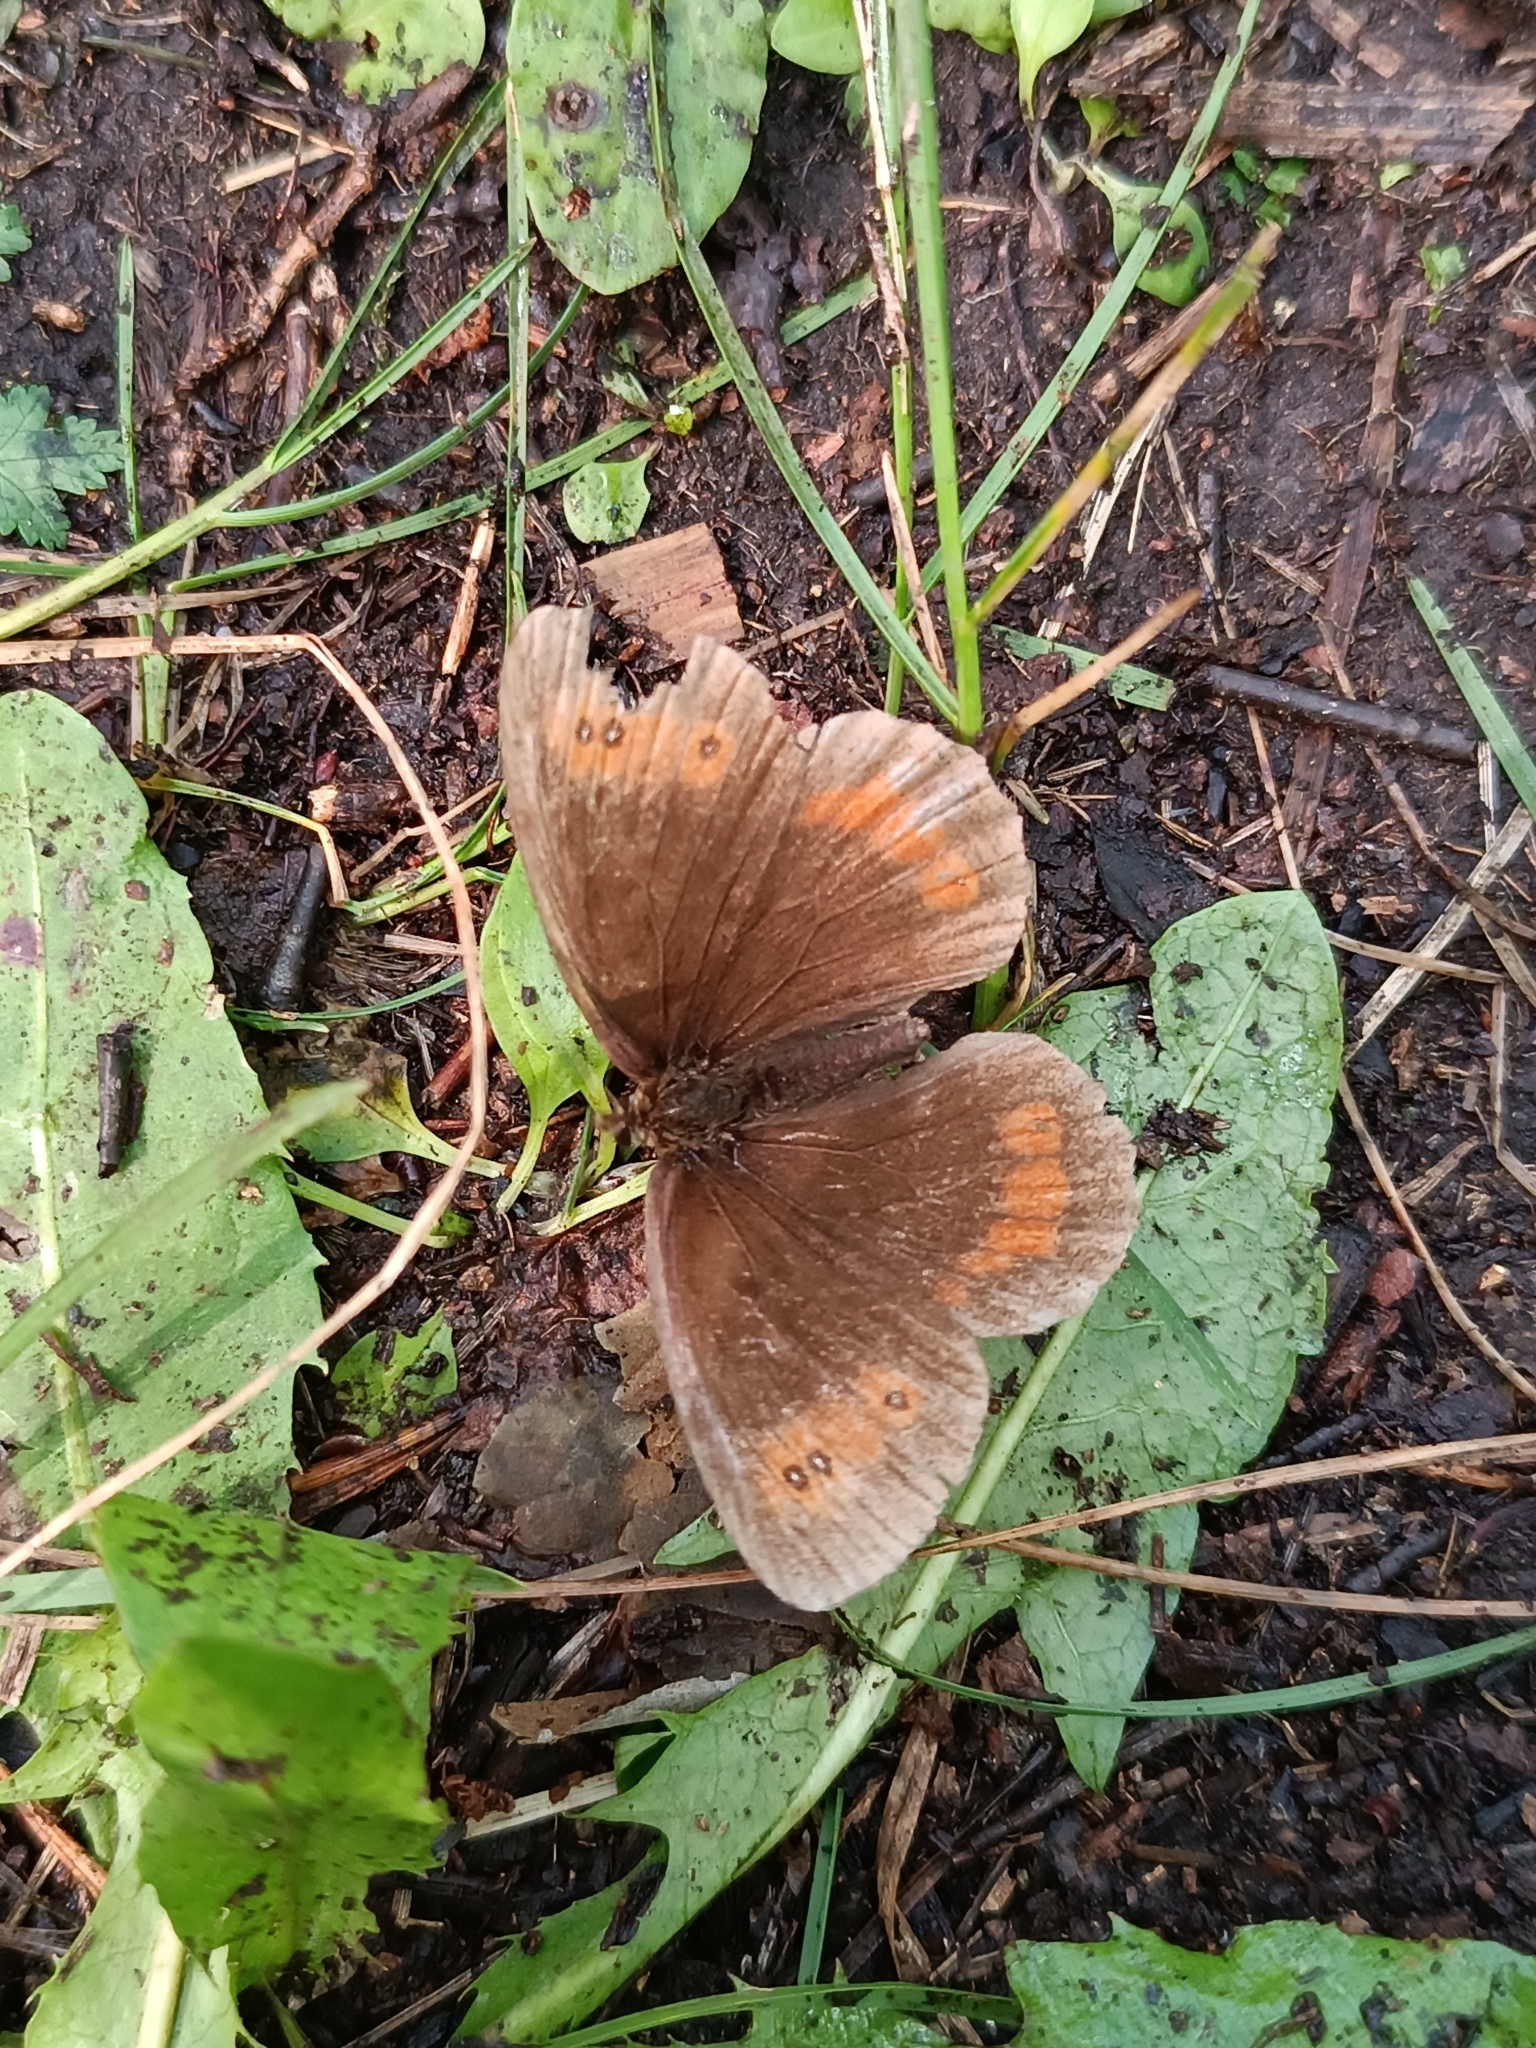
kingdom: Animalia
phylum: Arthropoda
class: Insecta
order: Lepidoptera
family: Nymphalidae
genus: Erebia
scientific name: Erebia aethiops
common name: Scotch argus
